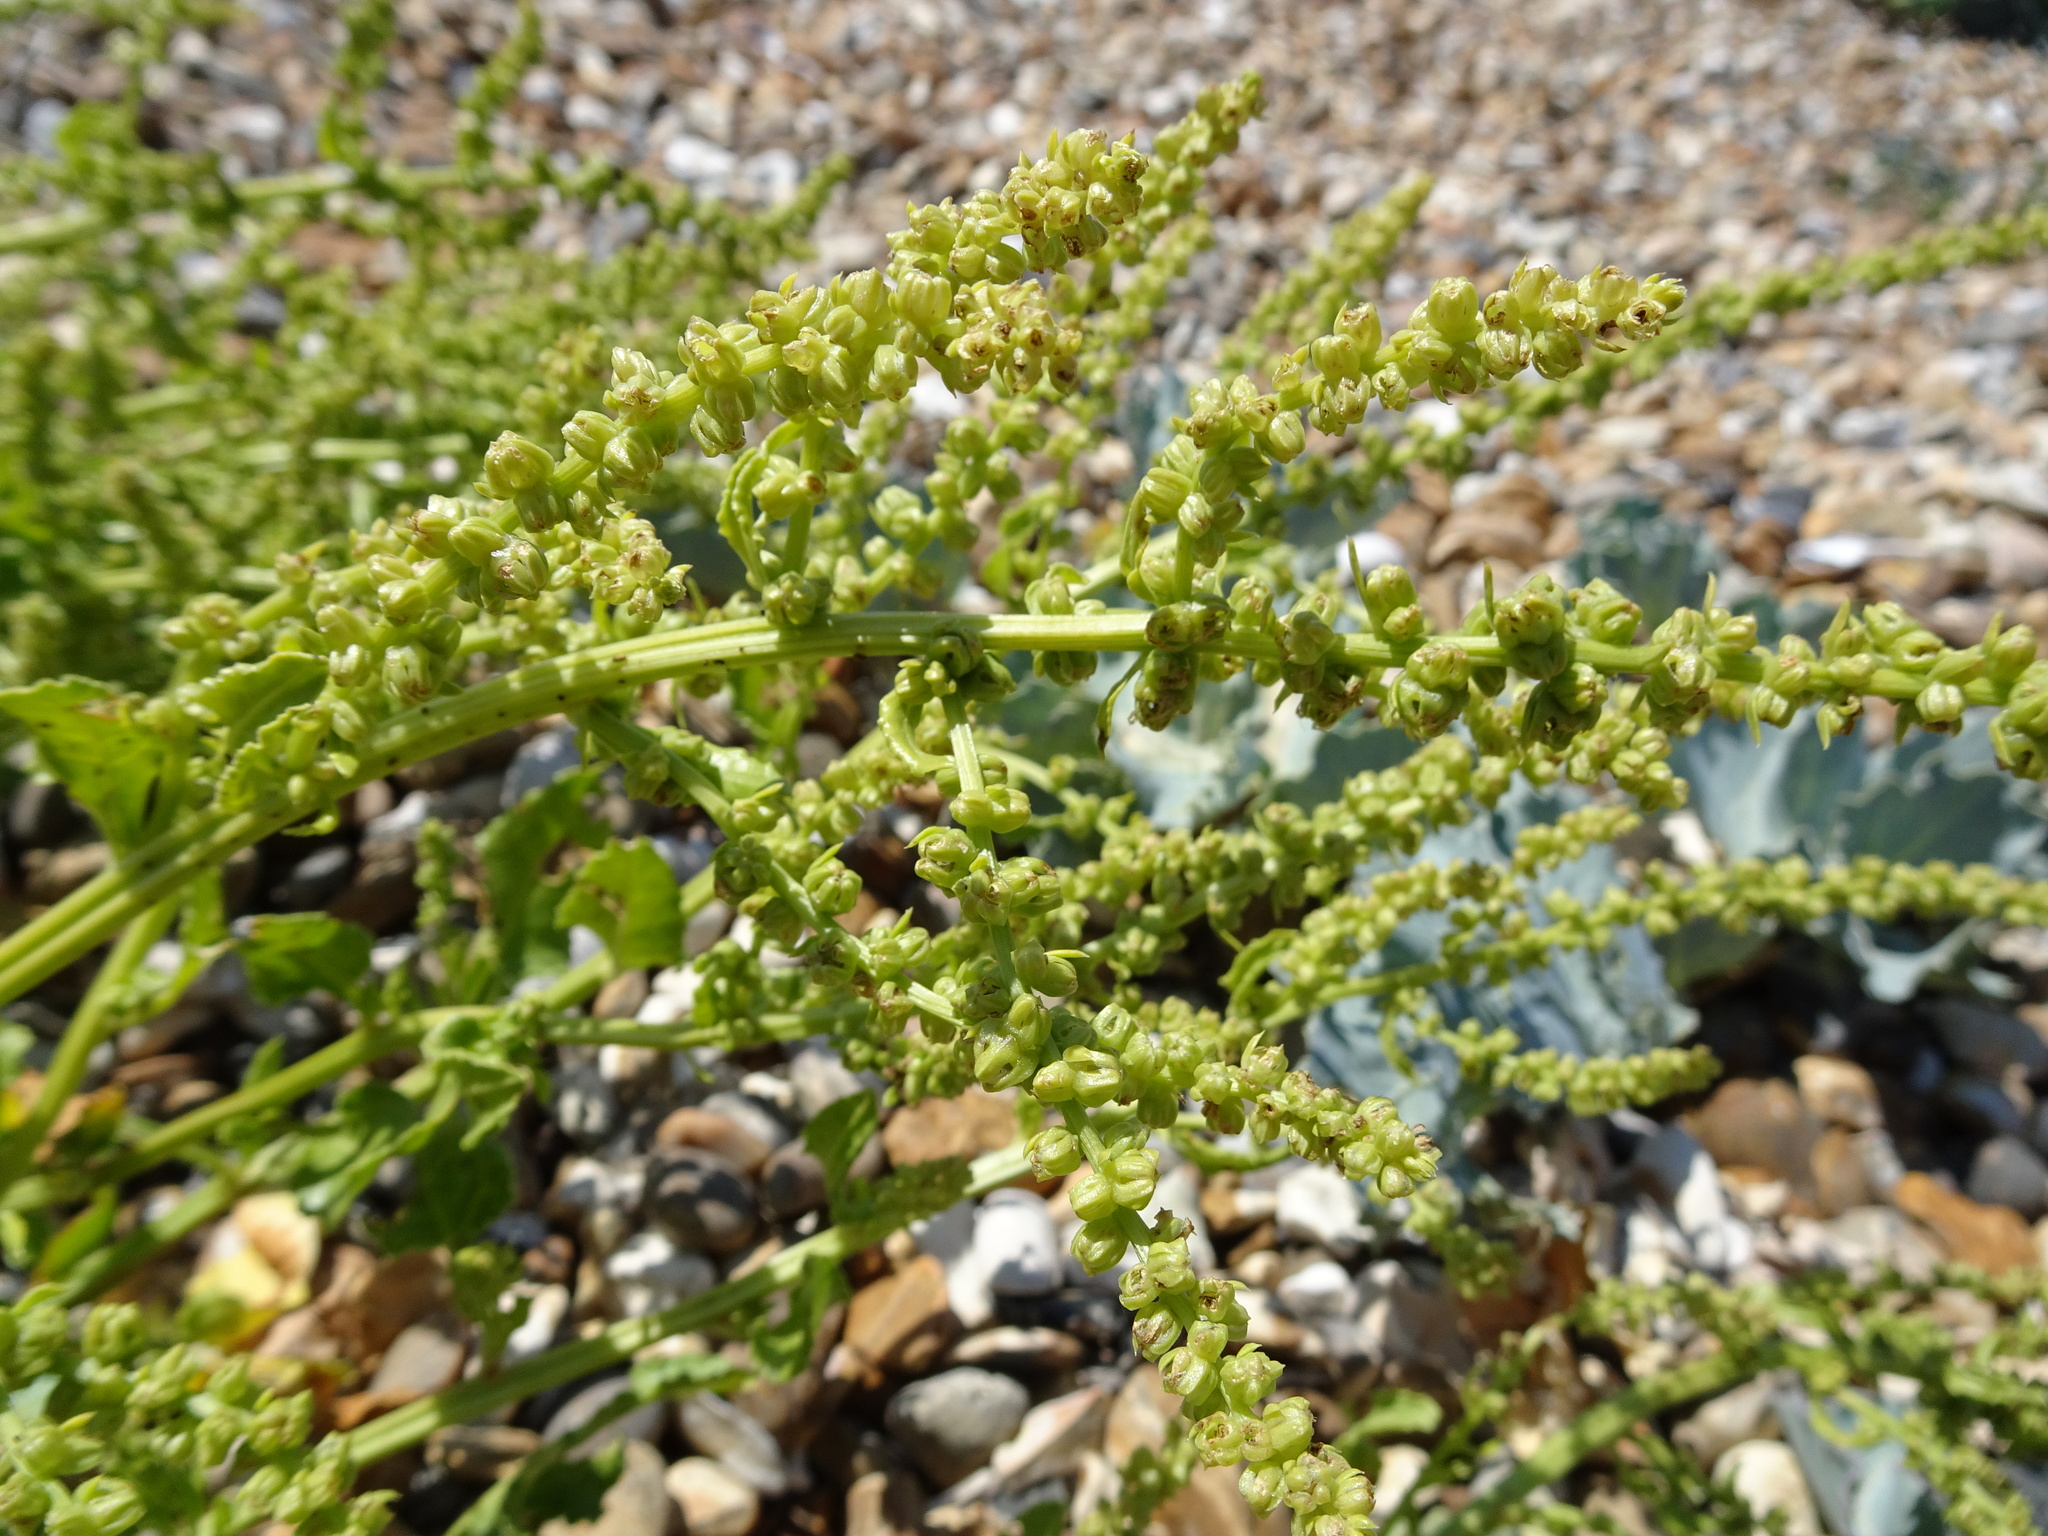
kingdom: Plantae
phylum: Tracheophyta
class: Magnoliopsida
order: Caryophyllales
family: Amaranthaceae
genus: Beta
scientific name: Beta vulgaris
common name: Beet
